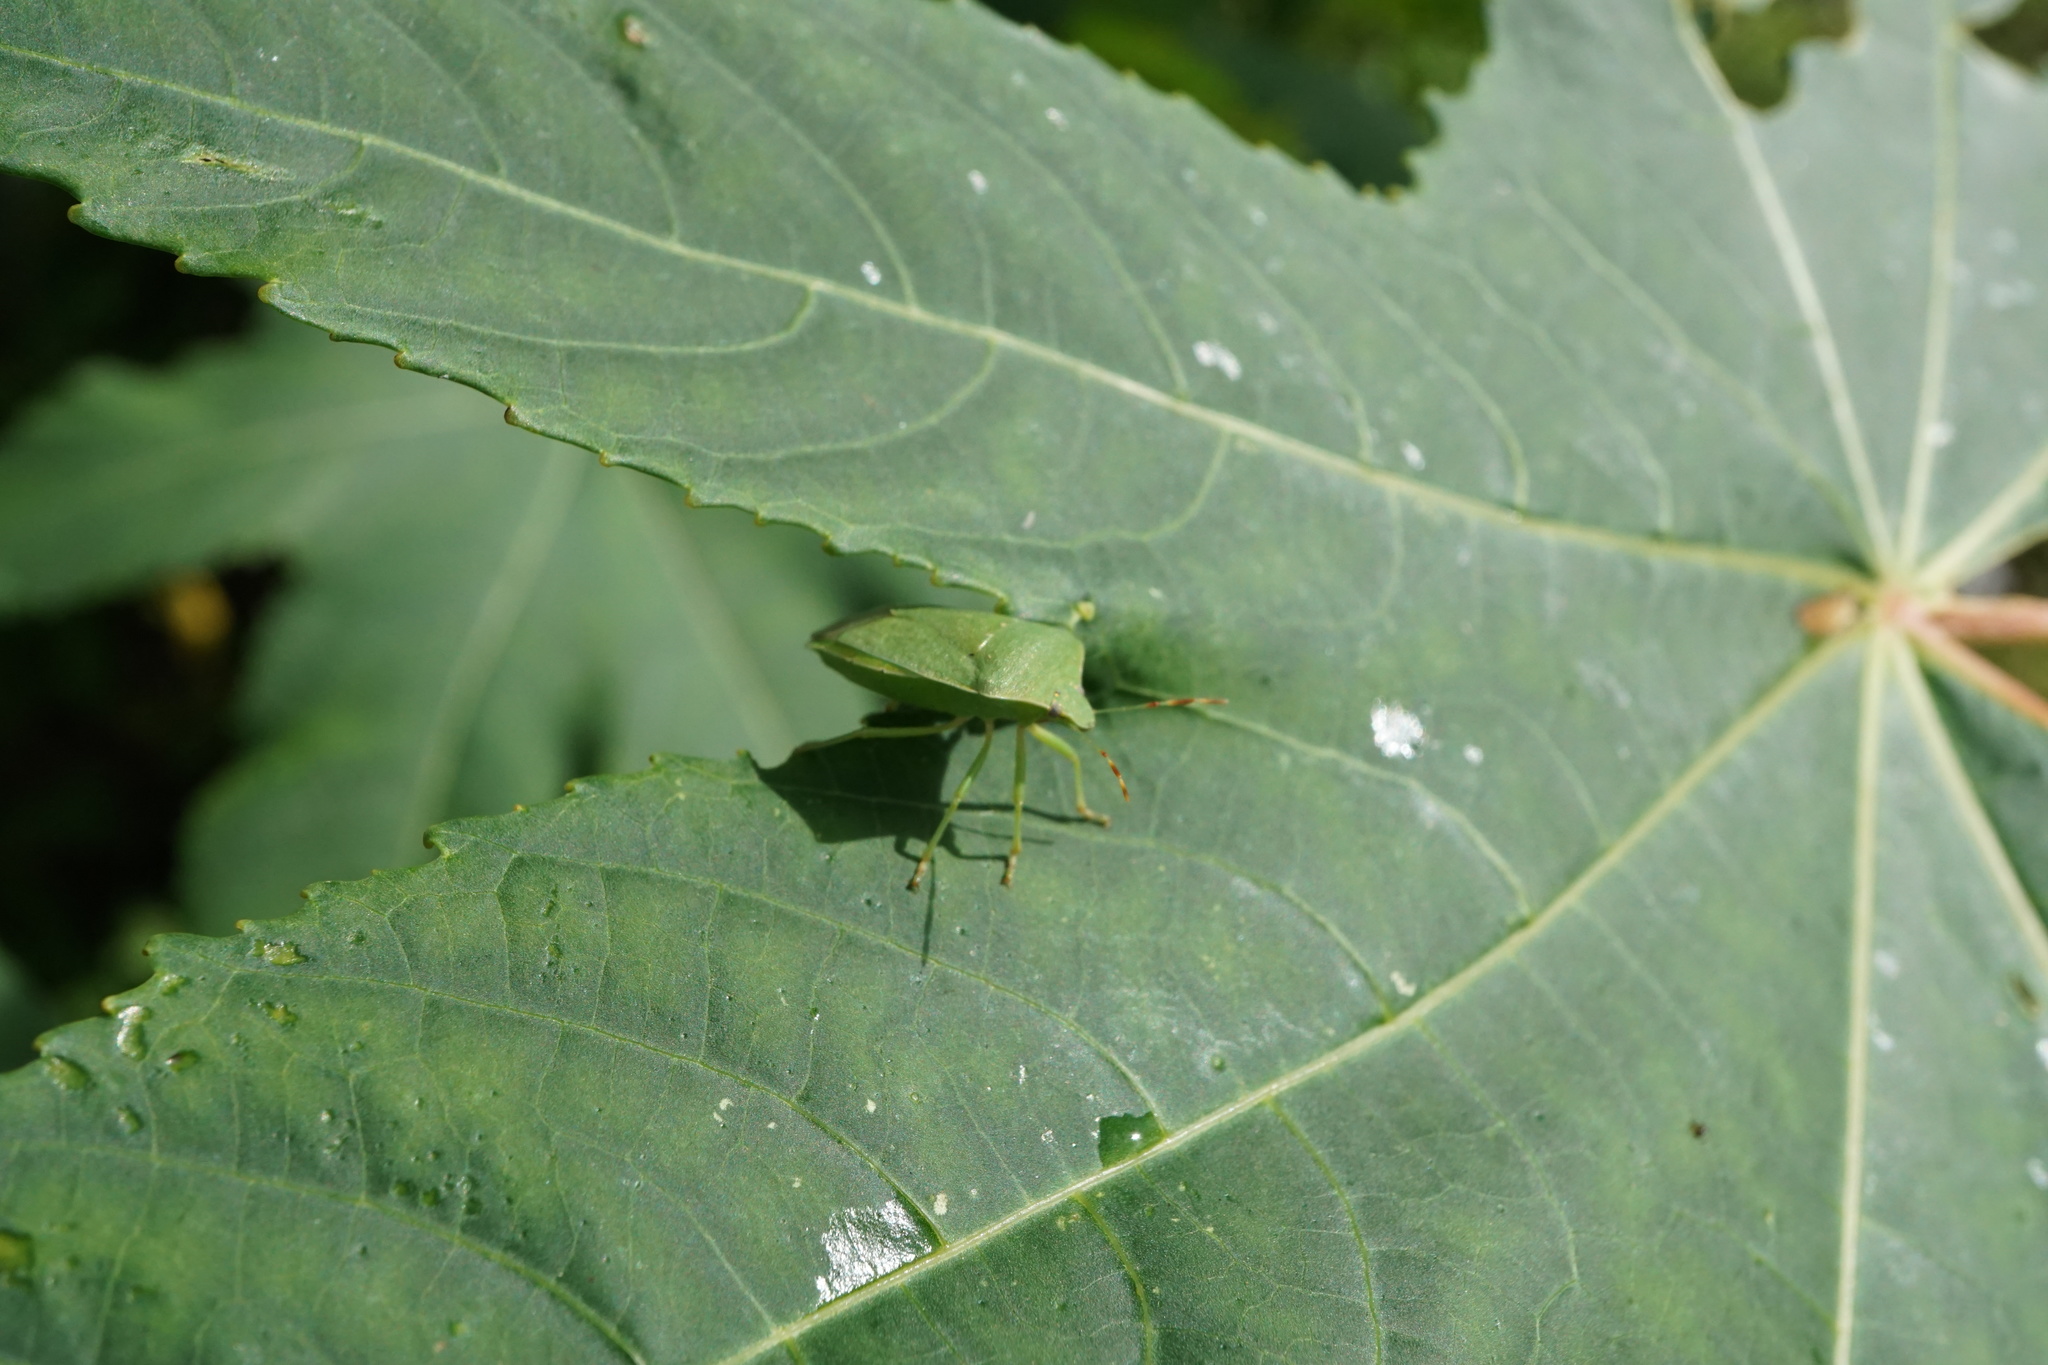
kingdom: Animalia
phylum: Arthropoda
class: Insecta
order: Hemiptera
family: Tingidae
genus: Corythucha
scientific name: Corythucha gossypii
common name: Cotton lace bug
